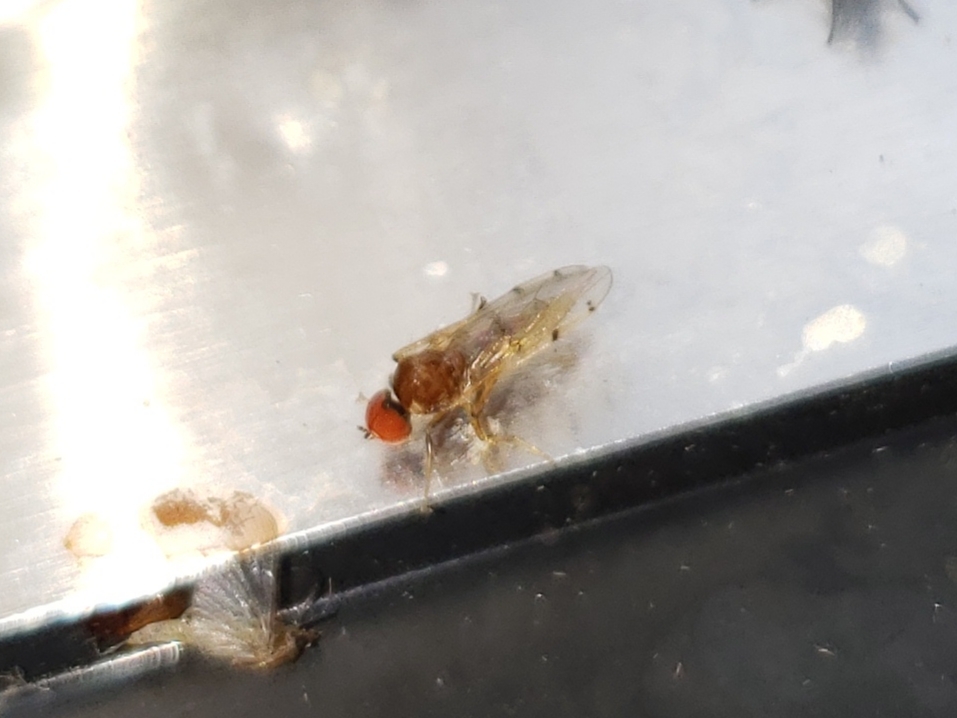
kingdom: Animalia
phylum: Arthropoda
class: Insecta
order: Diptera
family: Hybotidae
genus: Syneches
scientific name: Syneches simplex
